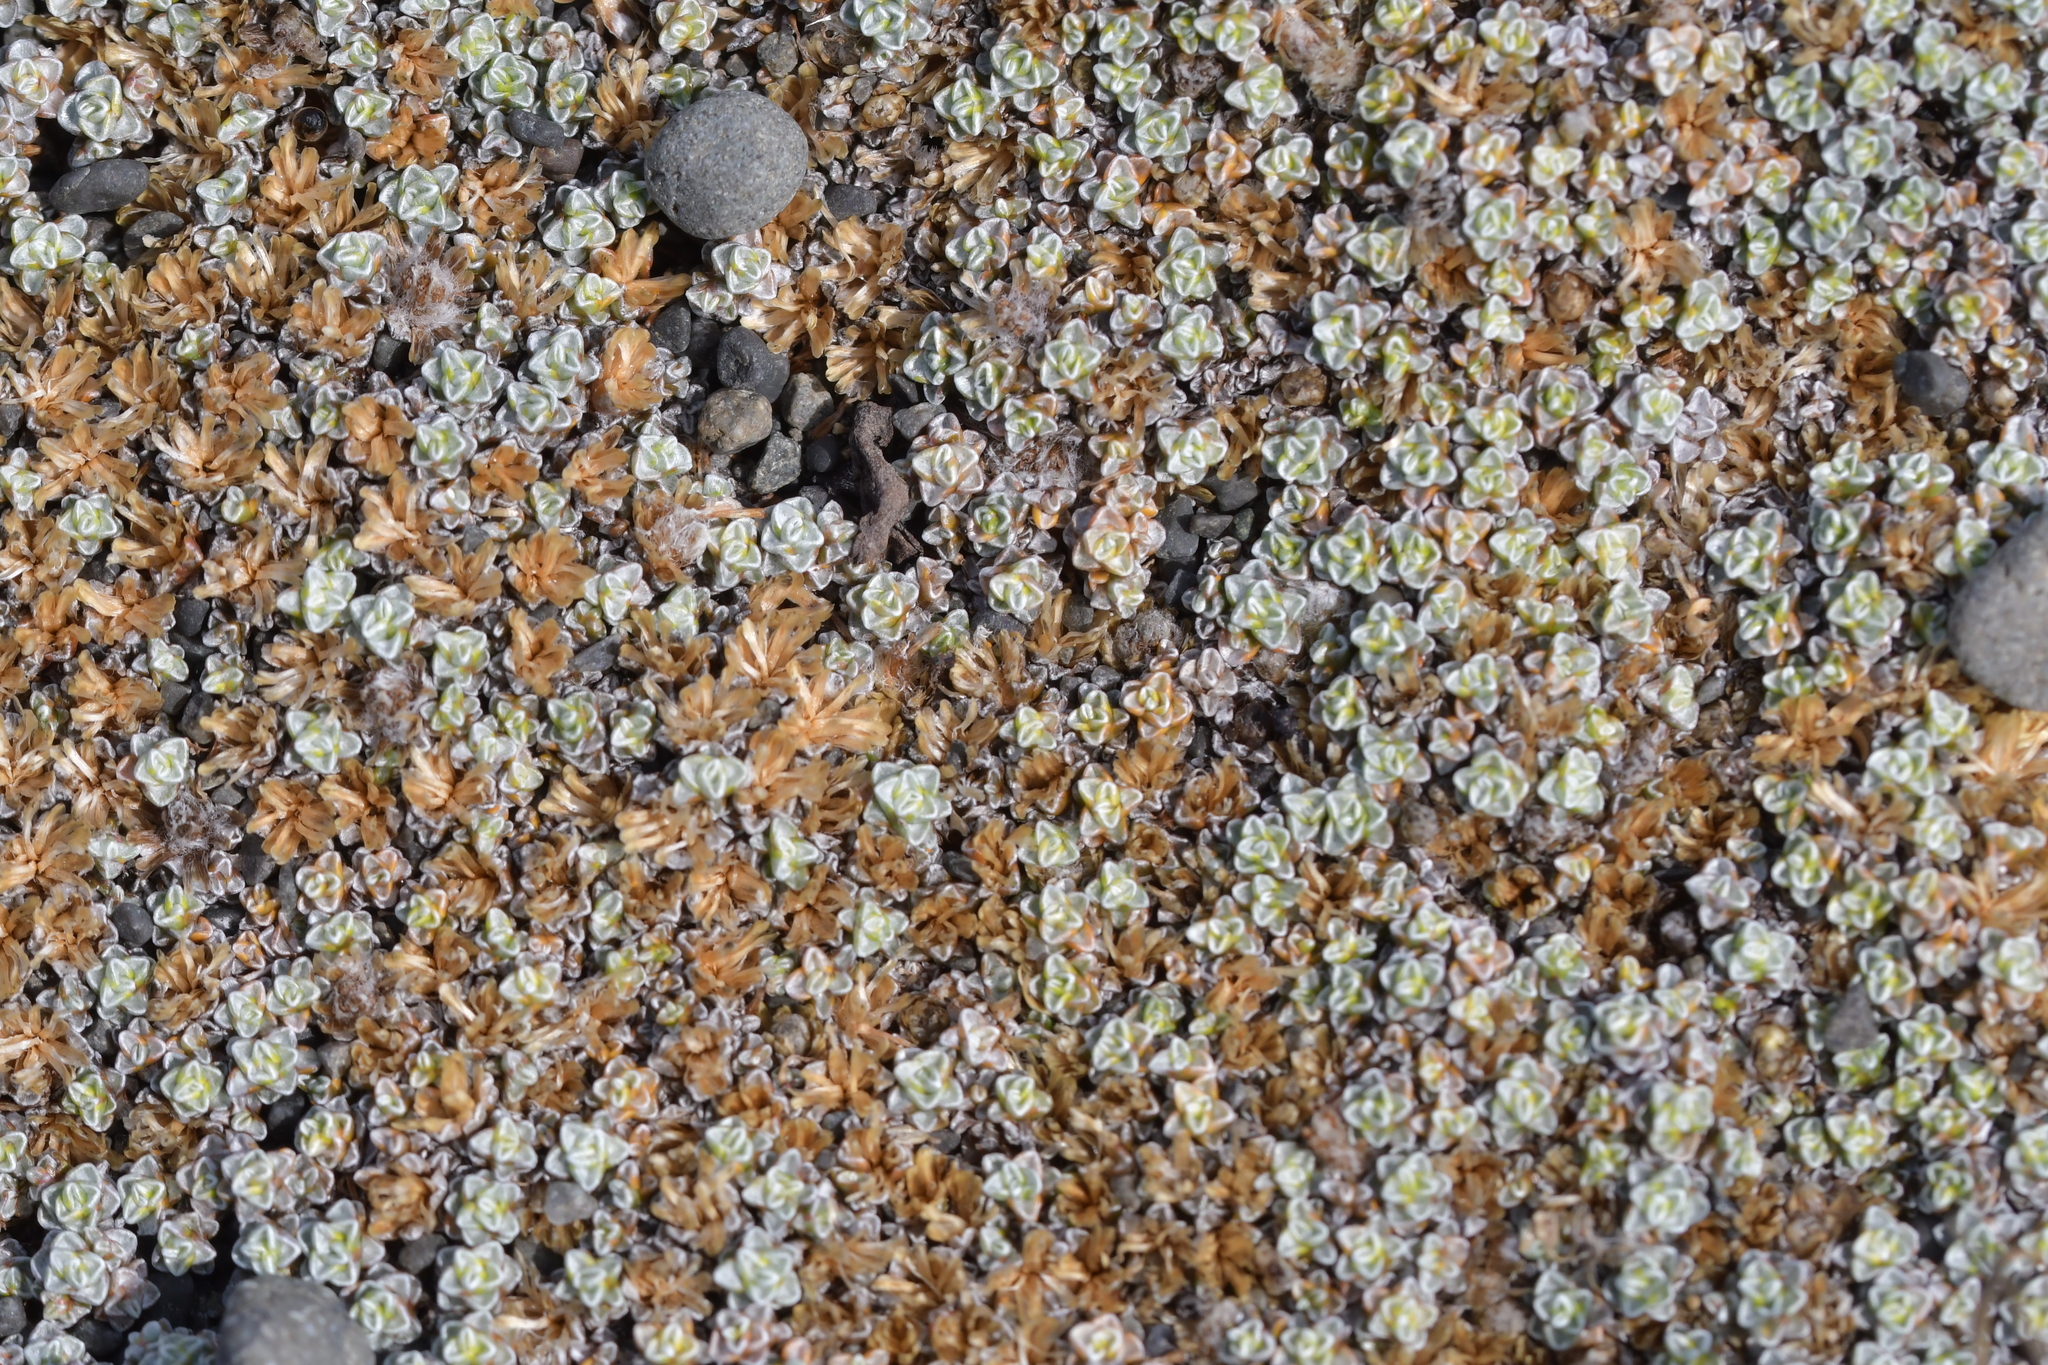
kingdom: Plantae
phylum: Tracheophyta
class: Magnoliopsida
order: Asterales
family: Asteraceae
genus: Raoulia
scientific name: Raoulia australis
